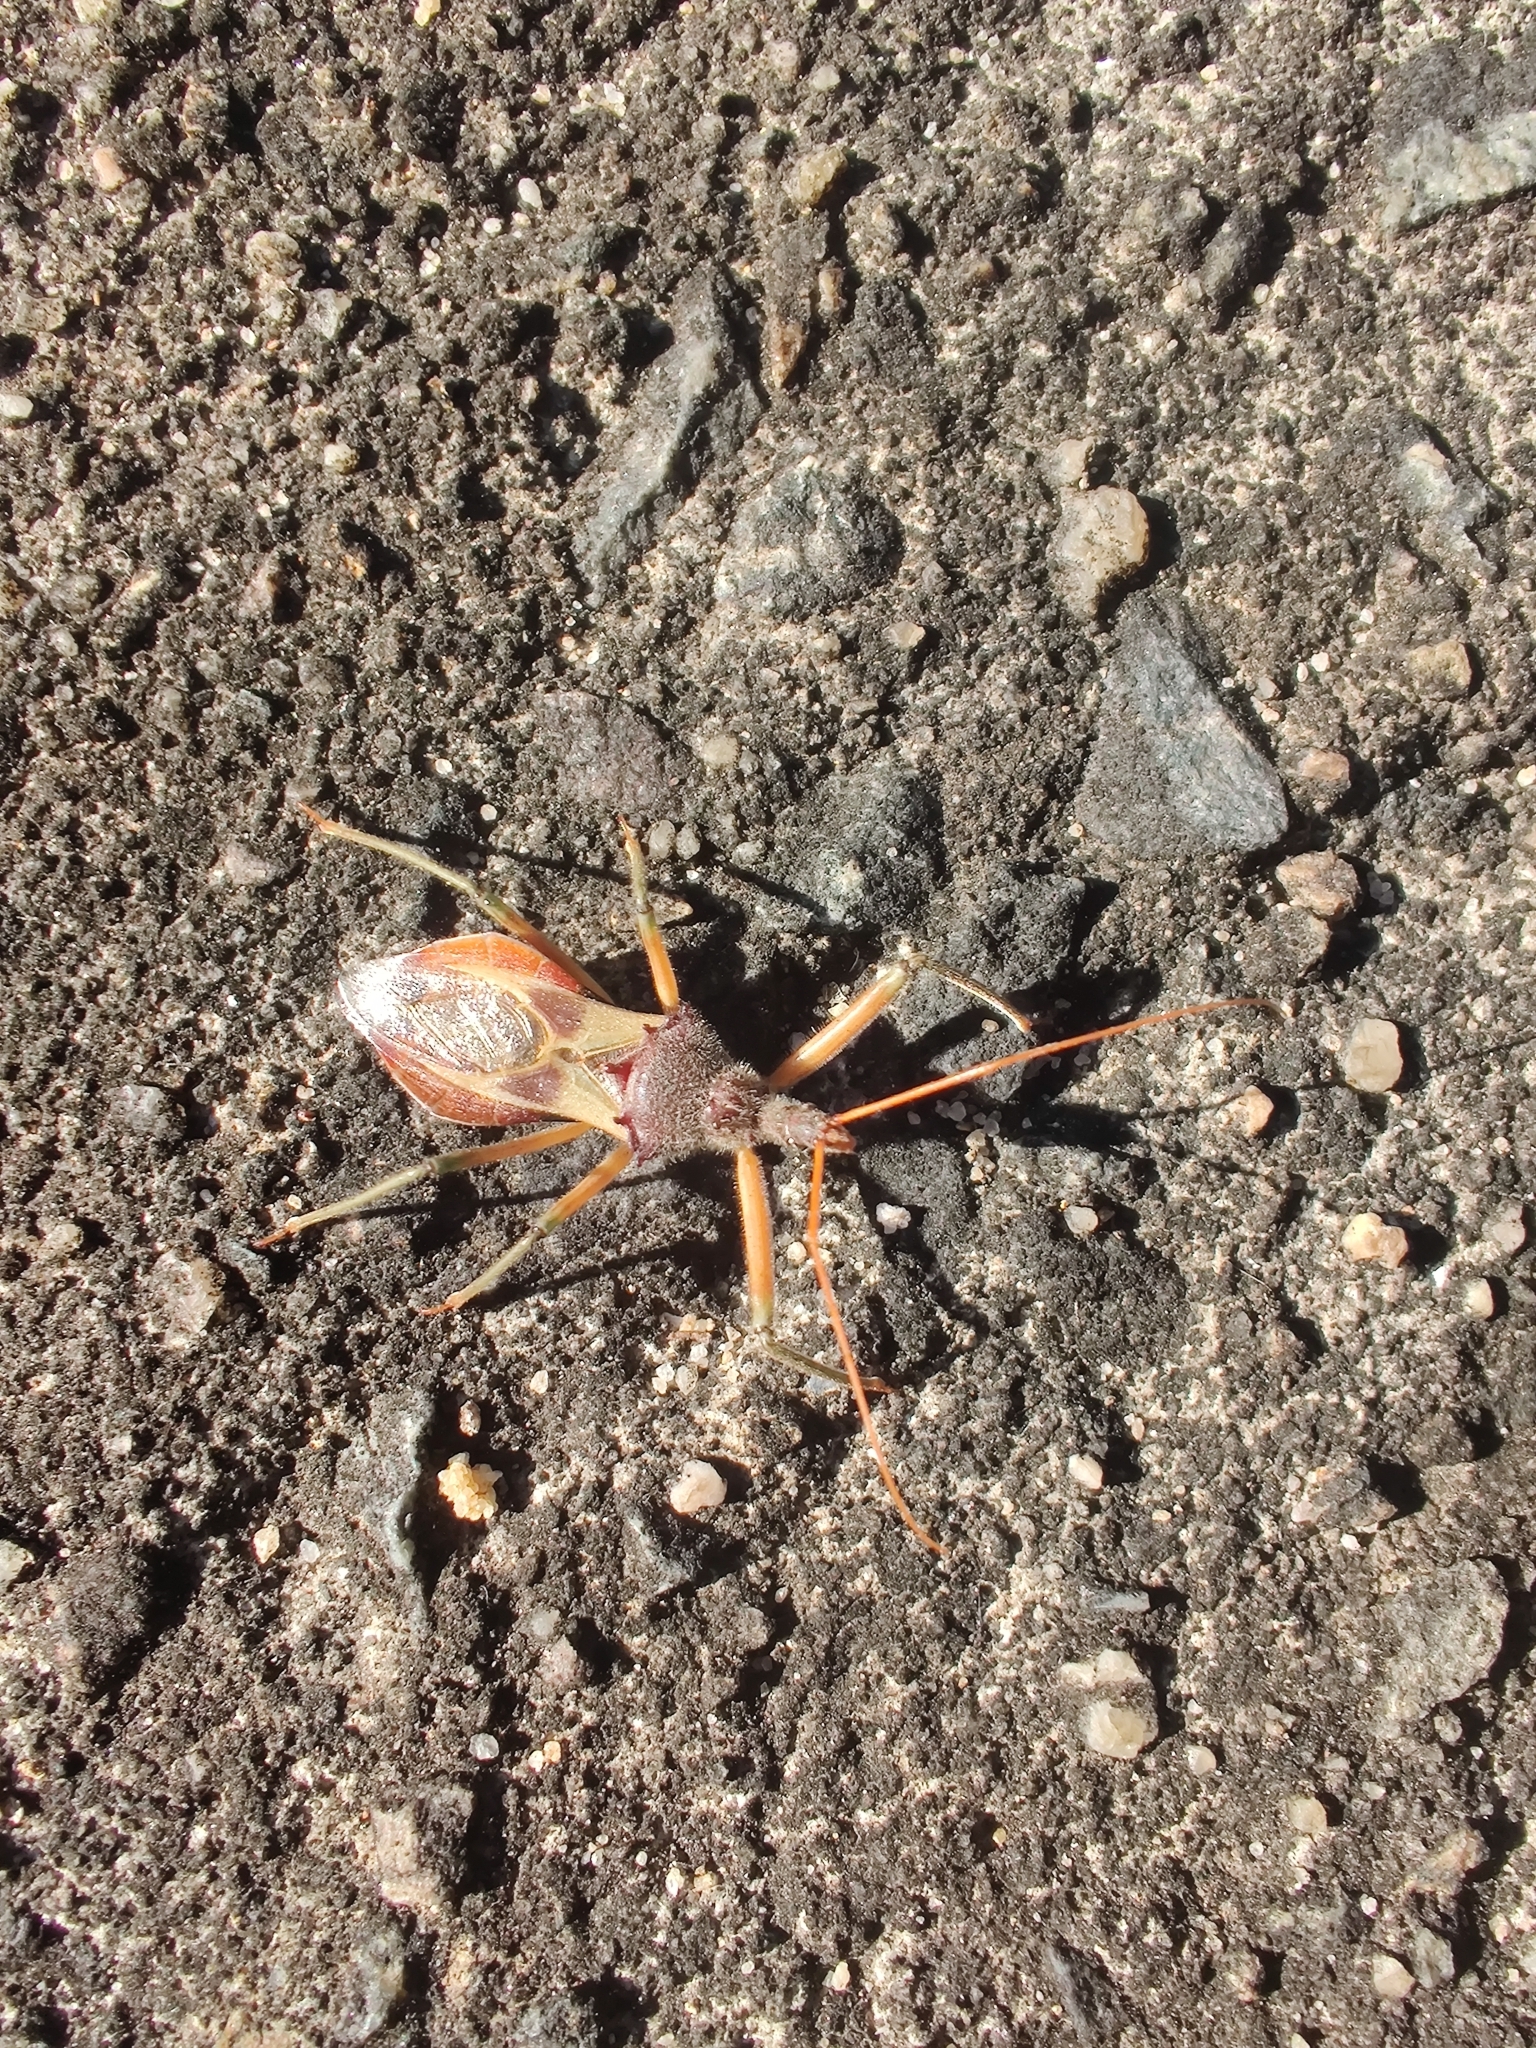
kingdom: Animalia
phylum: Arthropoda
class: Insecta
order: Hemiptera
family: Reduviidae
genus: Pristhesancus
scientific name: Pristhesancus plagipennis
